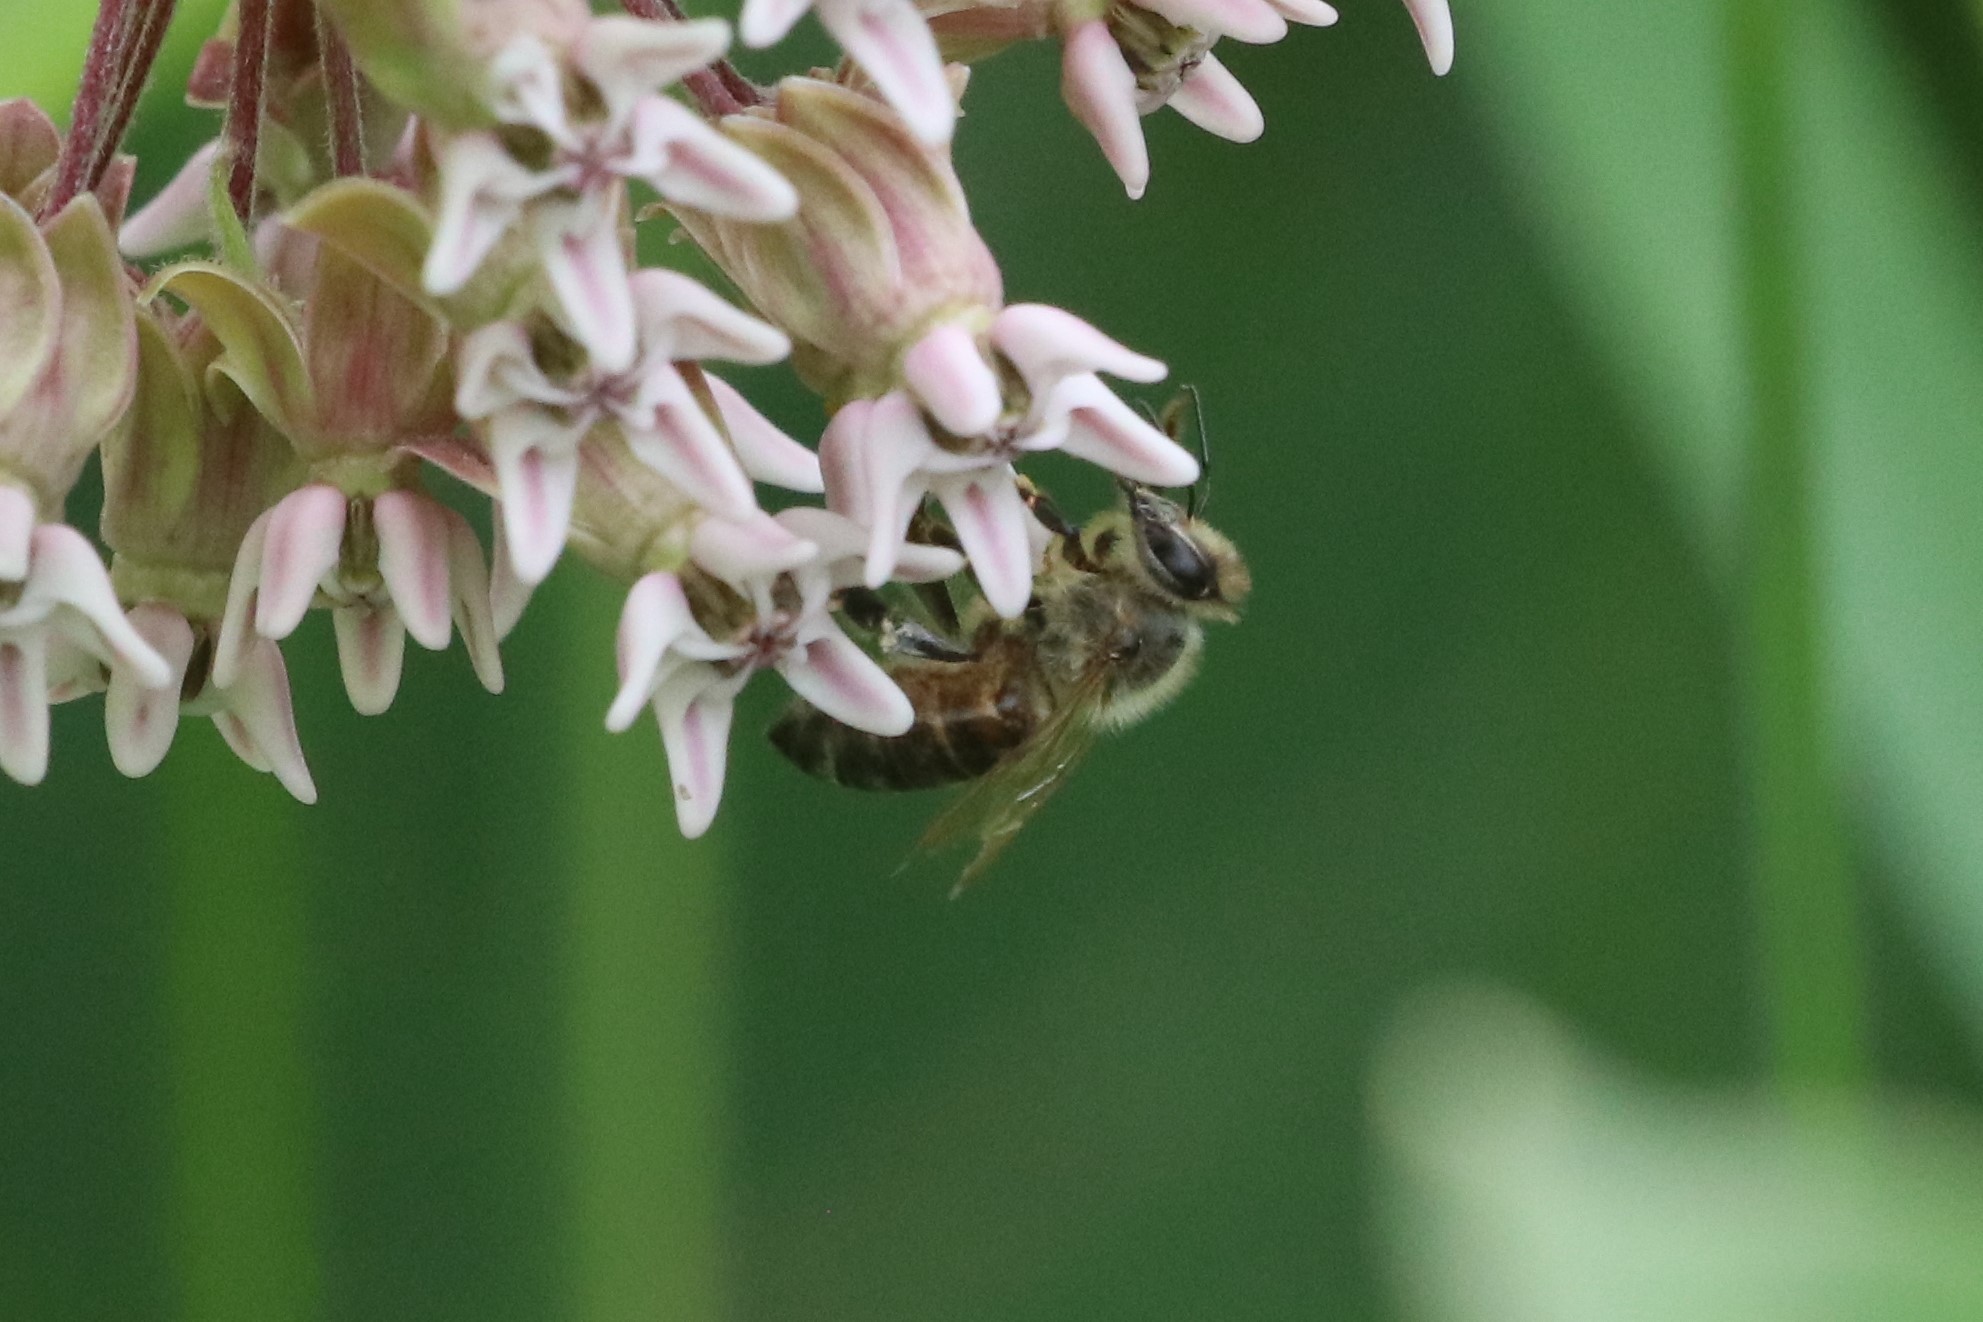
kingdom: Animalia
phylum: Arthropoda
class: Insecta
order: Hymenoptera
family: Apidae
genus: Apis
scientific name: Apis mellifera
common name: Honey bee
